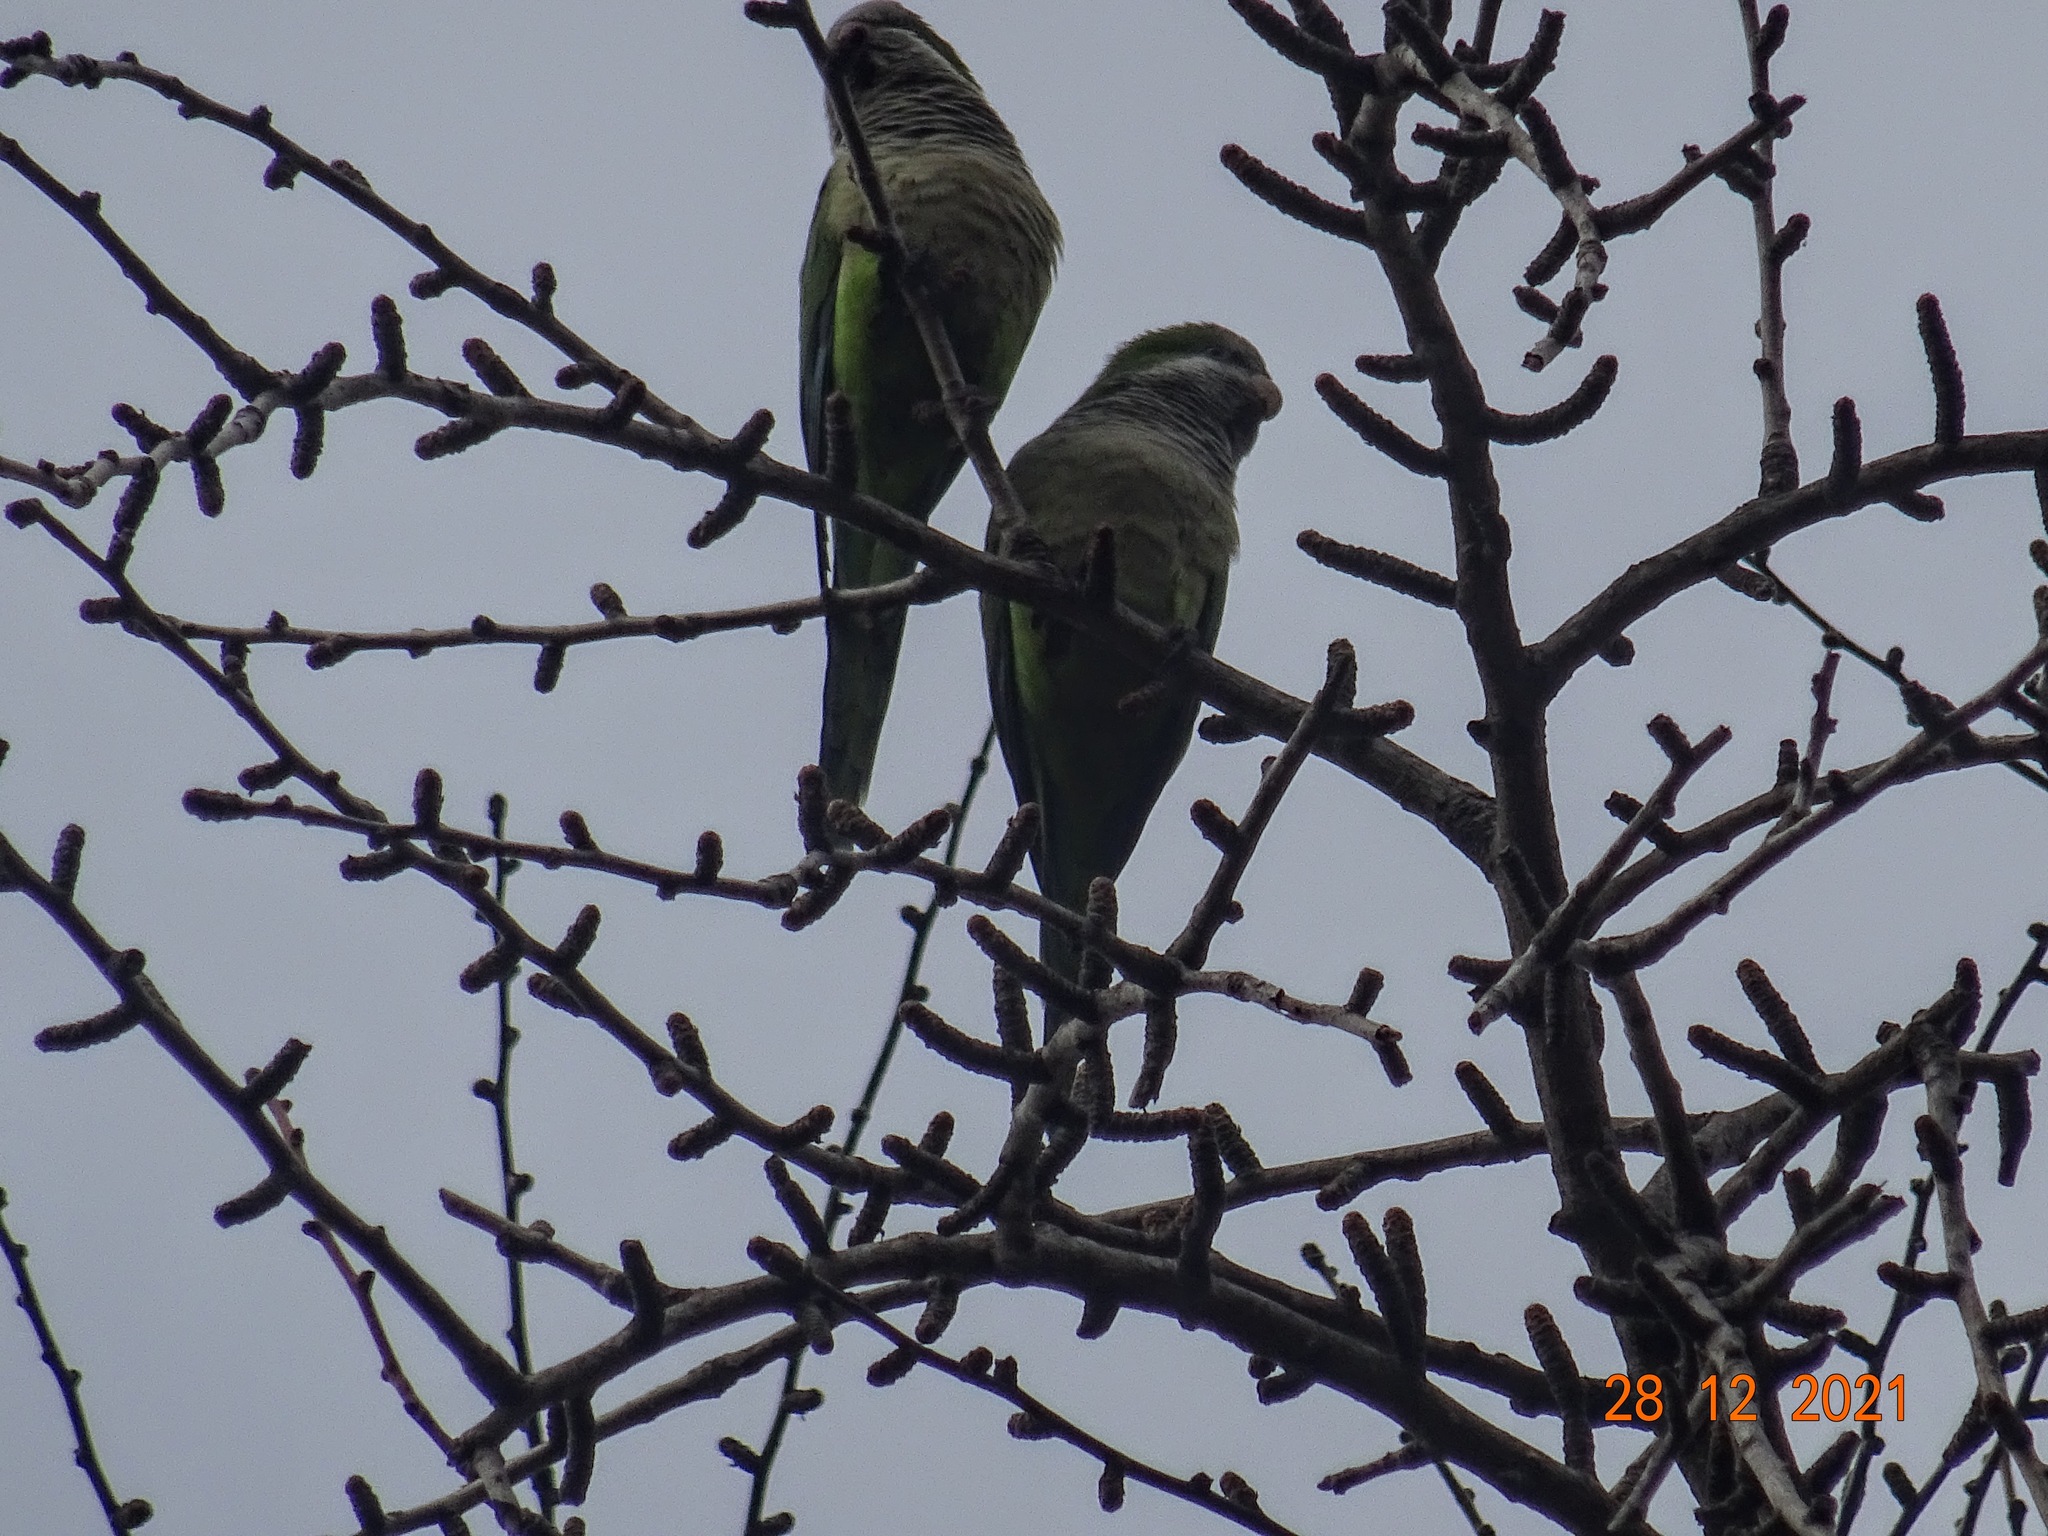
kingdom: Animalia
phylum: Chordata
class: Aves
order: Psittaciformes
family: Psittacidae
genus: Myiopsitta
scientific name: Myiopsitta monachus
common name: Monk parakeet
